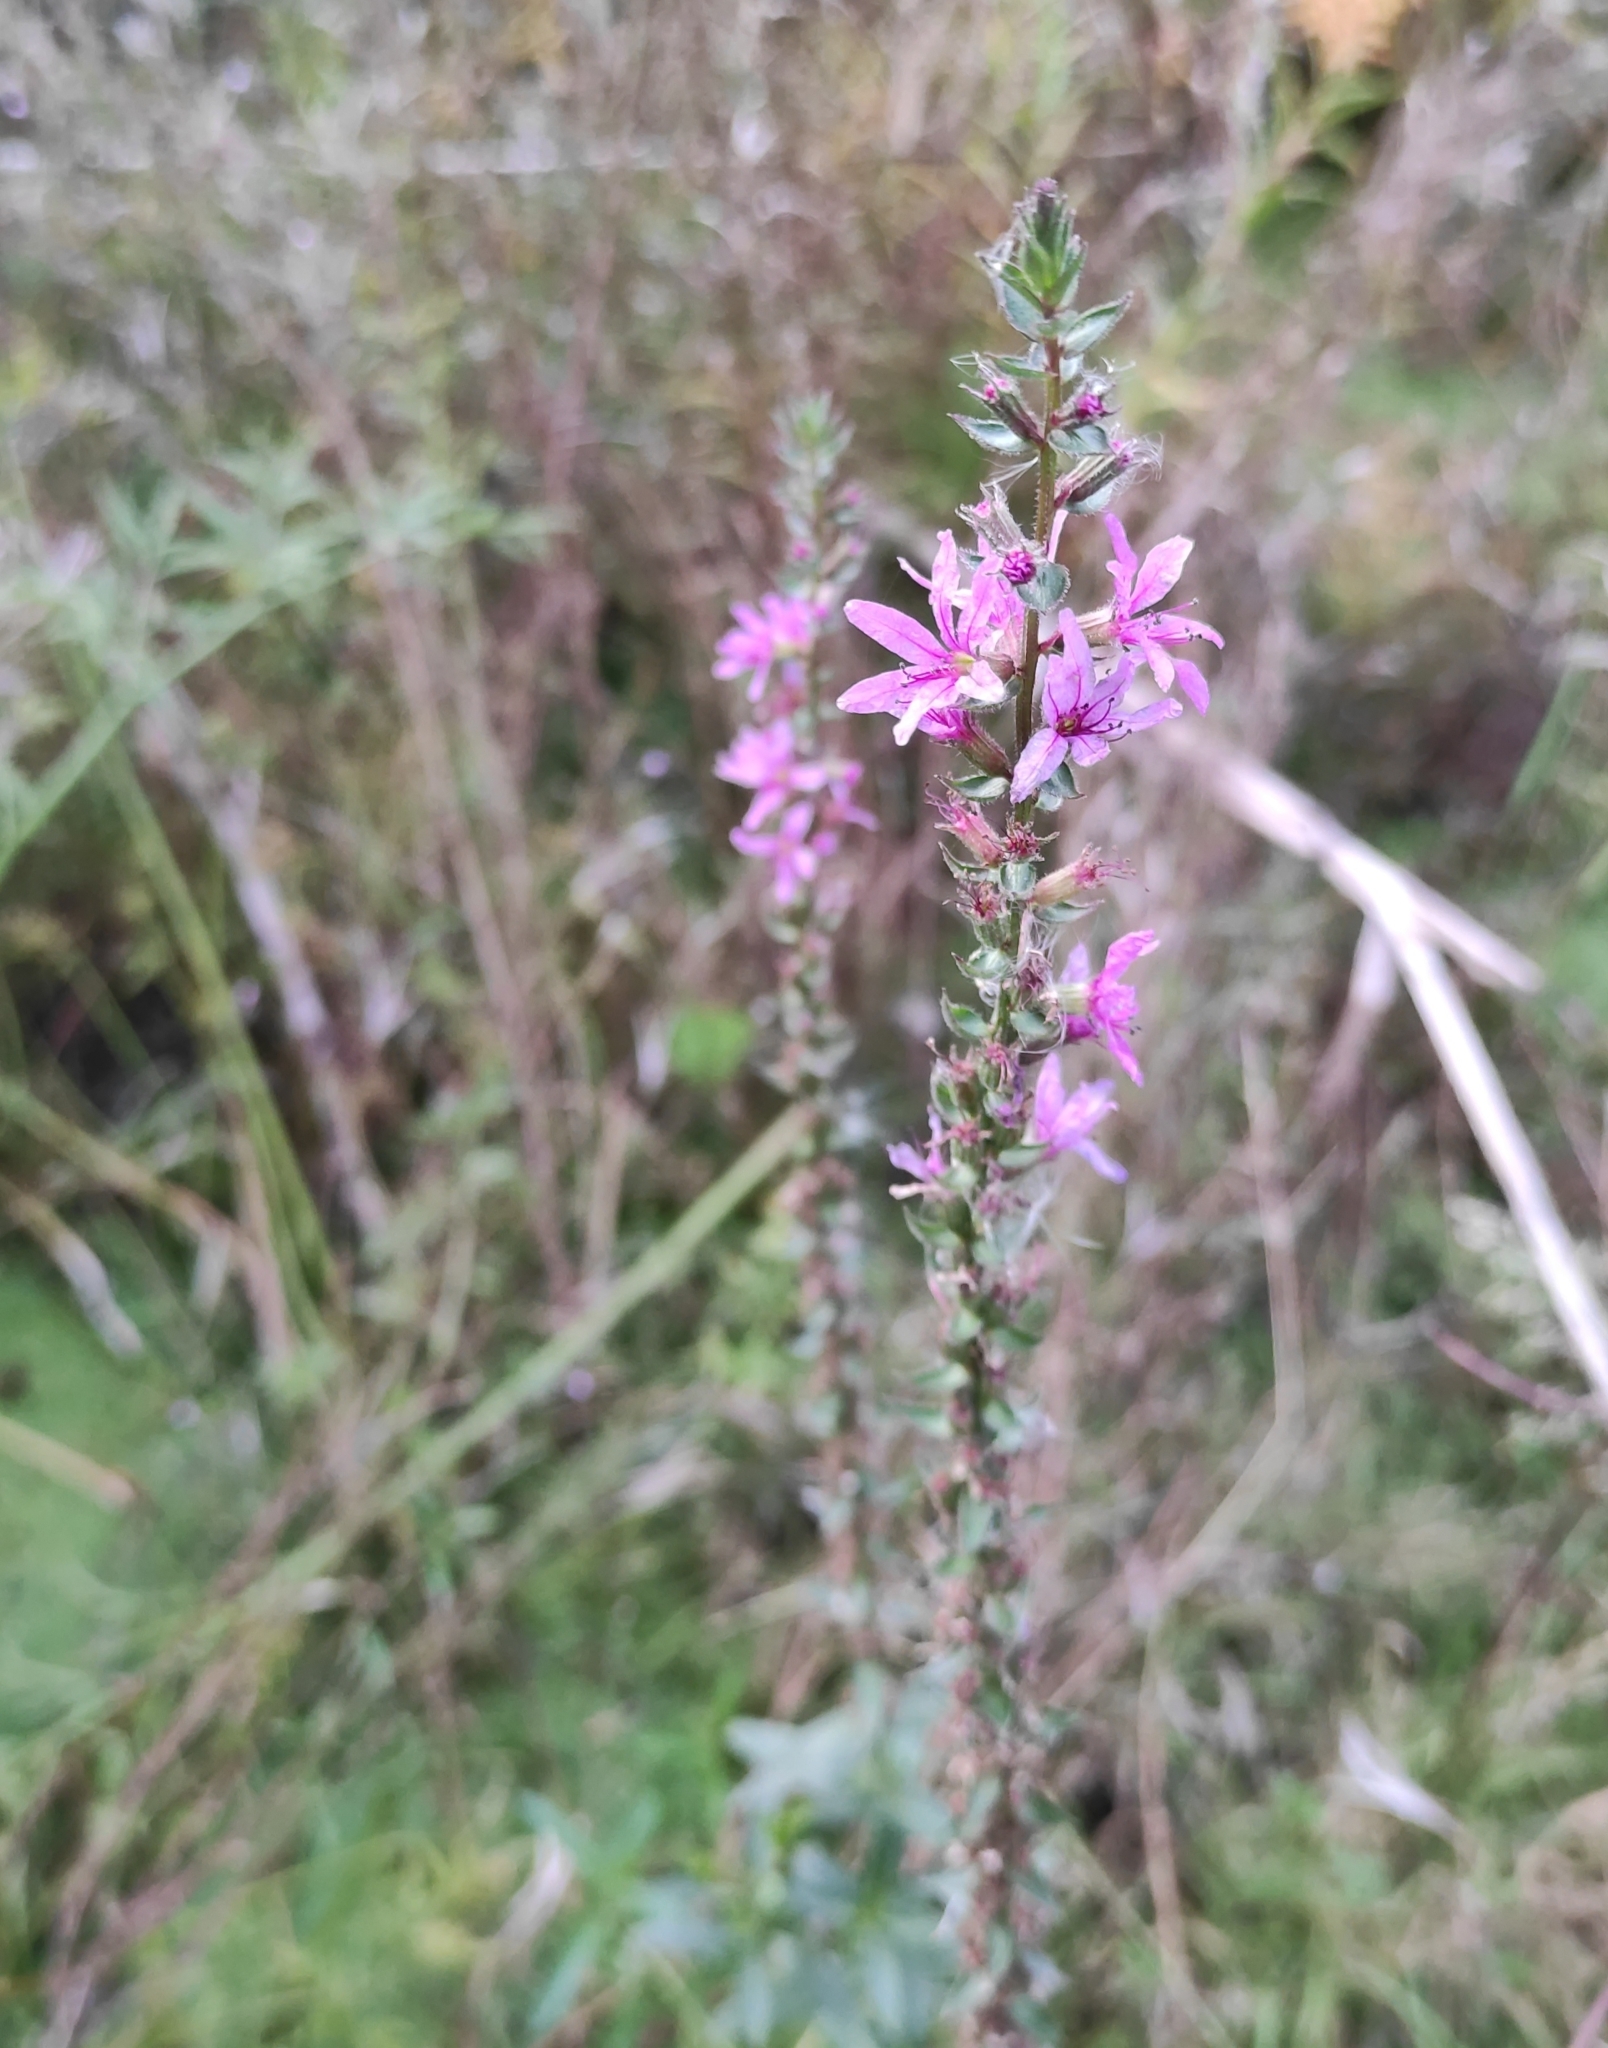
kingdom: Plantae
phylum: Tracheophyta
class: Magnoliopsida
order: Myrtales
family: Lythraceae
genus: Lythrum
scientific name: Lythrum salicaria
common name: Purple loosestrife
